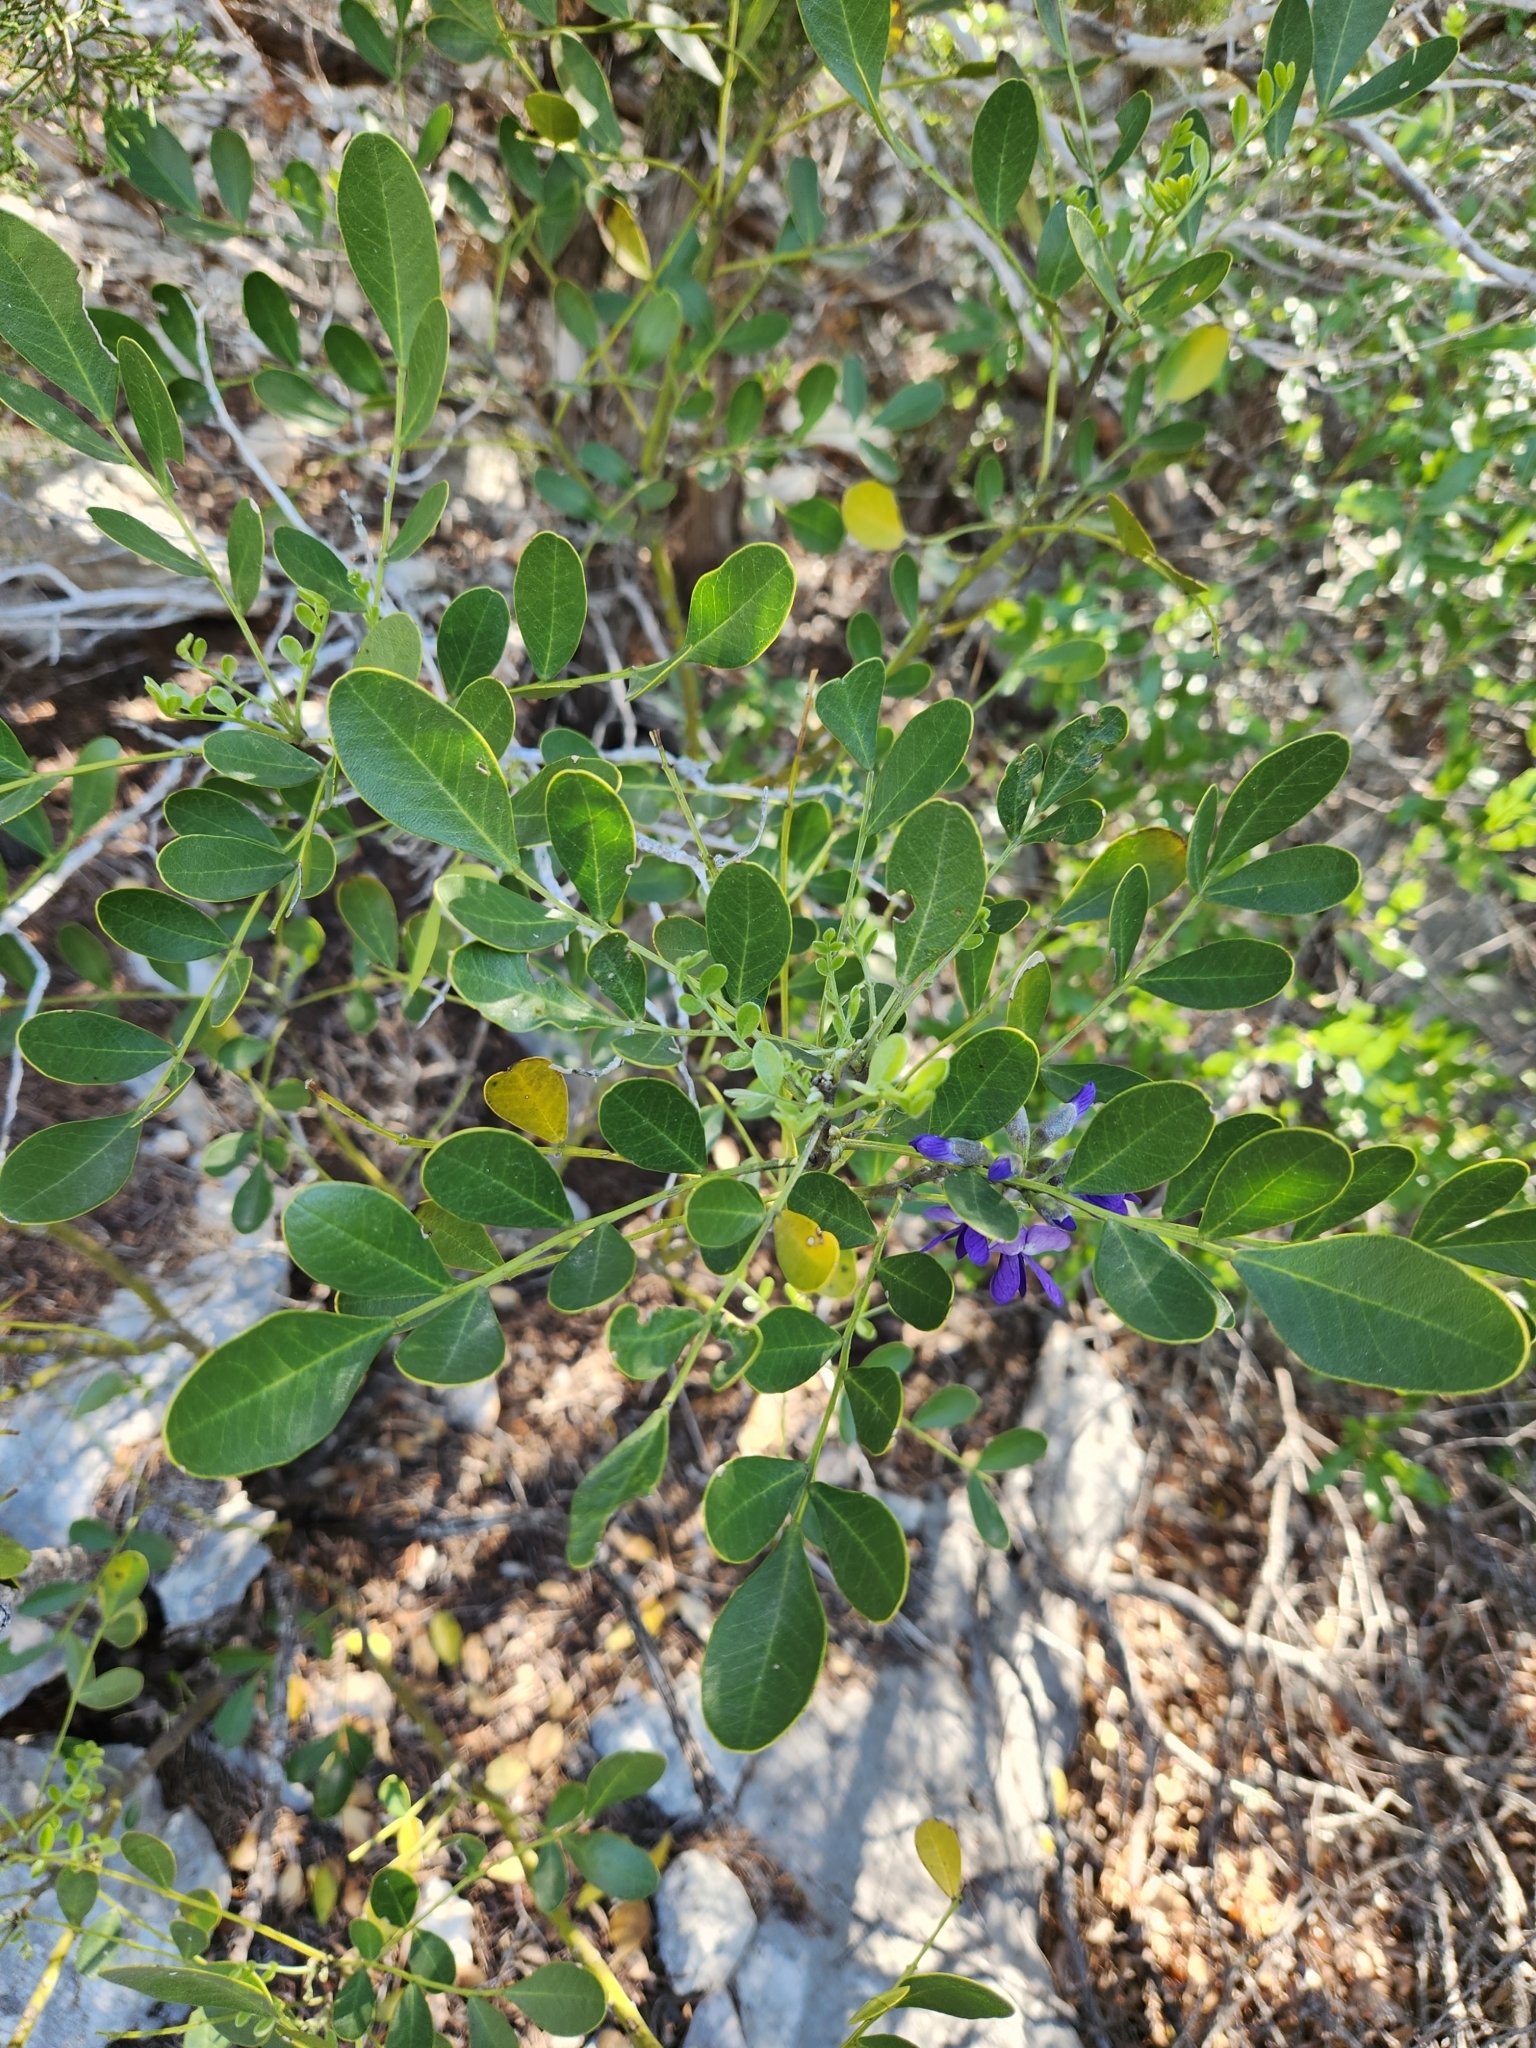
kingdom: Plantae
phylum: Tracheophyta
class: Magnoliopsida
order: Fabales
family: Fabaceae
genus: Dermatophyllum
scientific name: Dermatophyllum secundiflorum
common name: Texas-mountain-laurel
